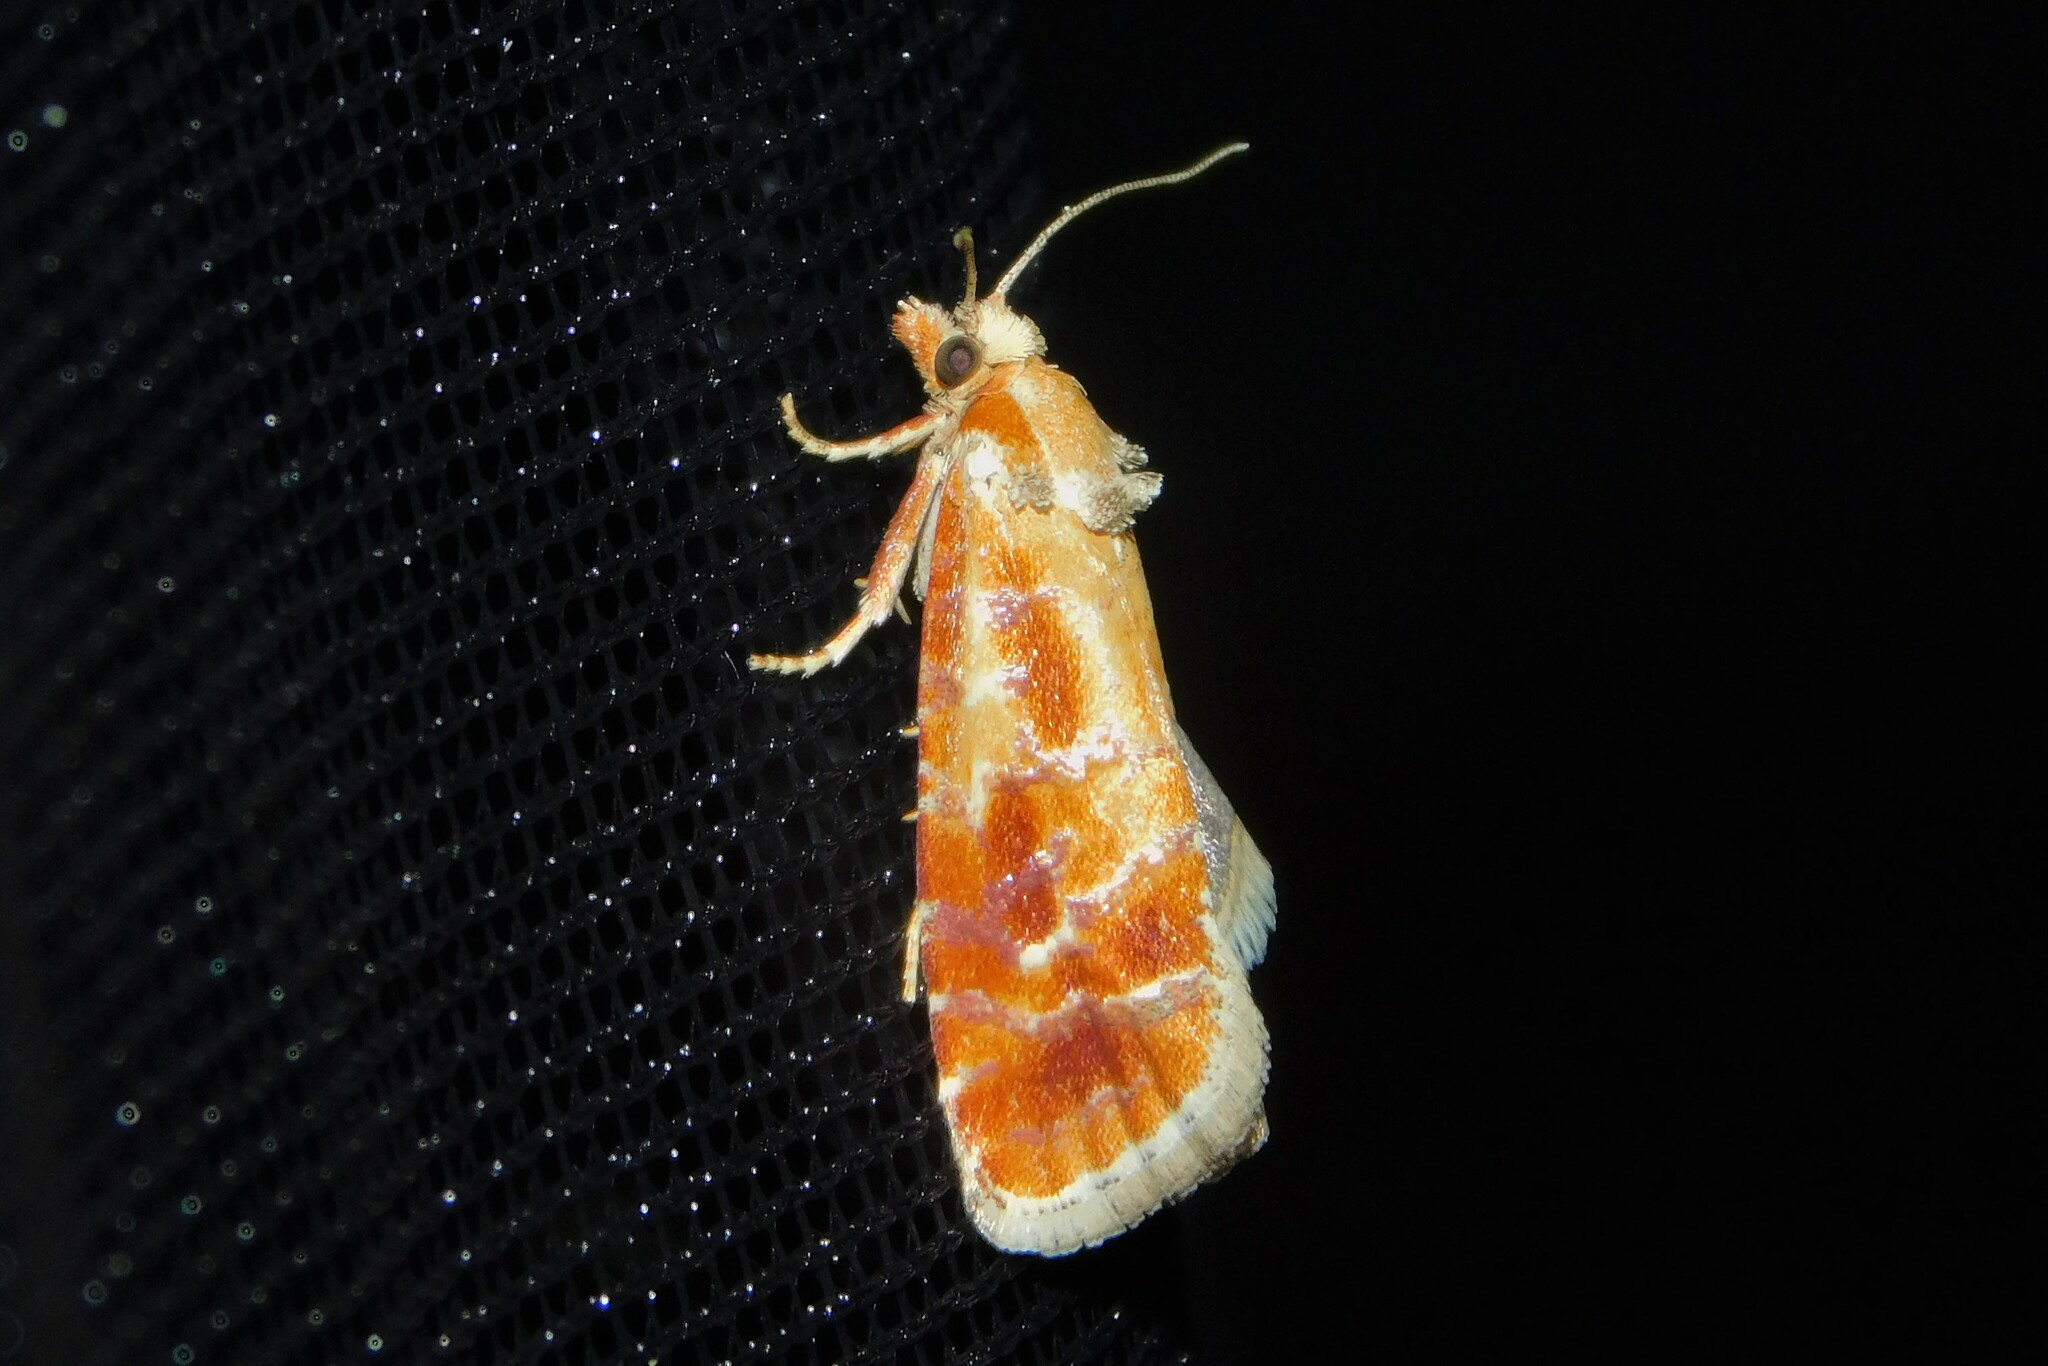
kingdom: Animalia
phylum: Arthropoda
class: Insecta
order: Lepidoptera
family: Tortricidae
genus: Rhyacionia
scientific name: Rhyacionia buoliana
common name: European pine shoot moth
